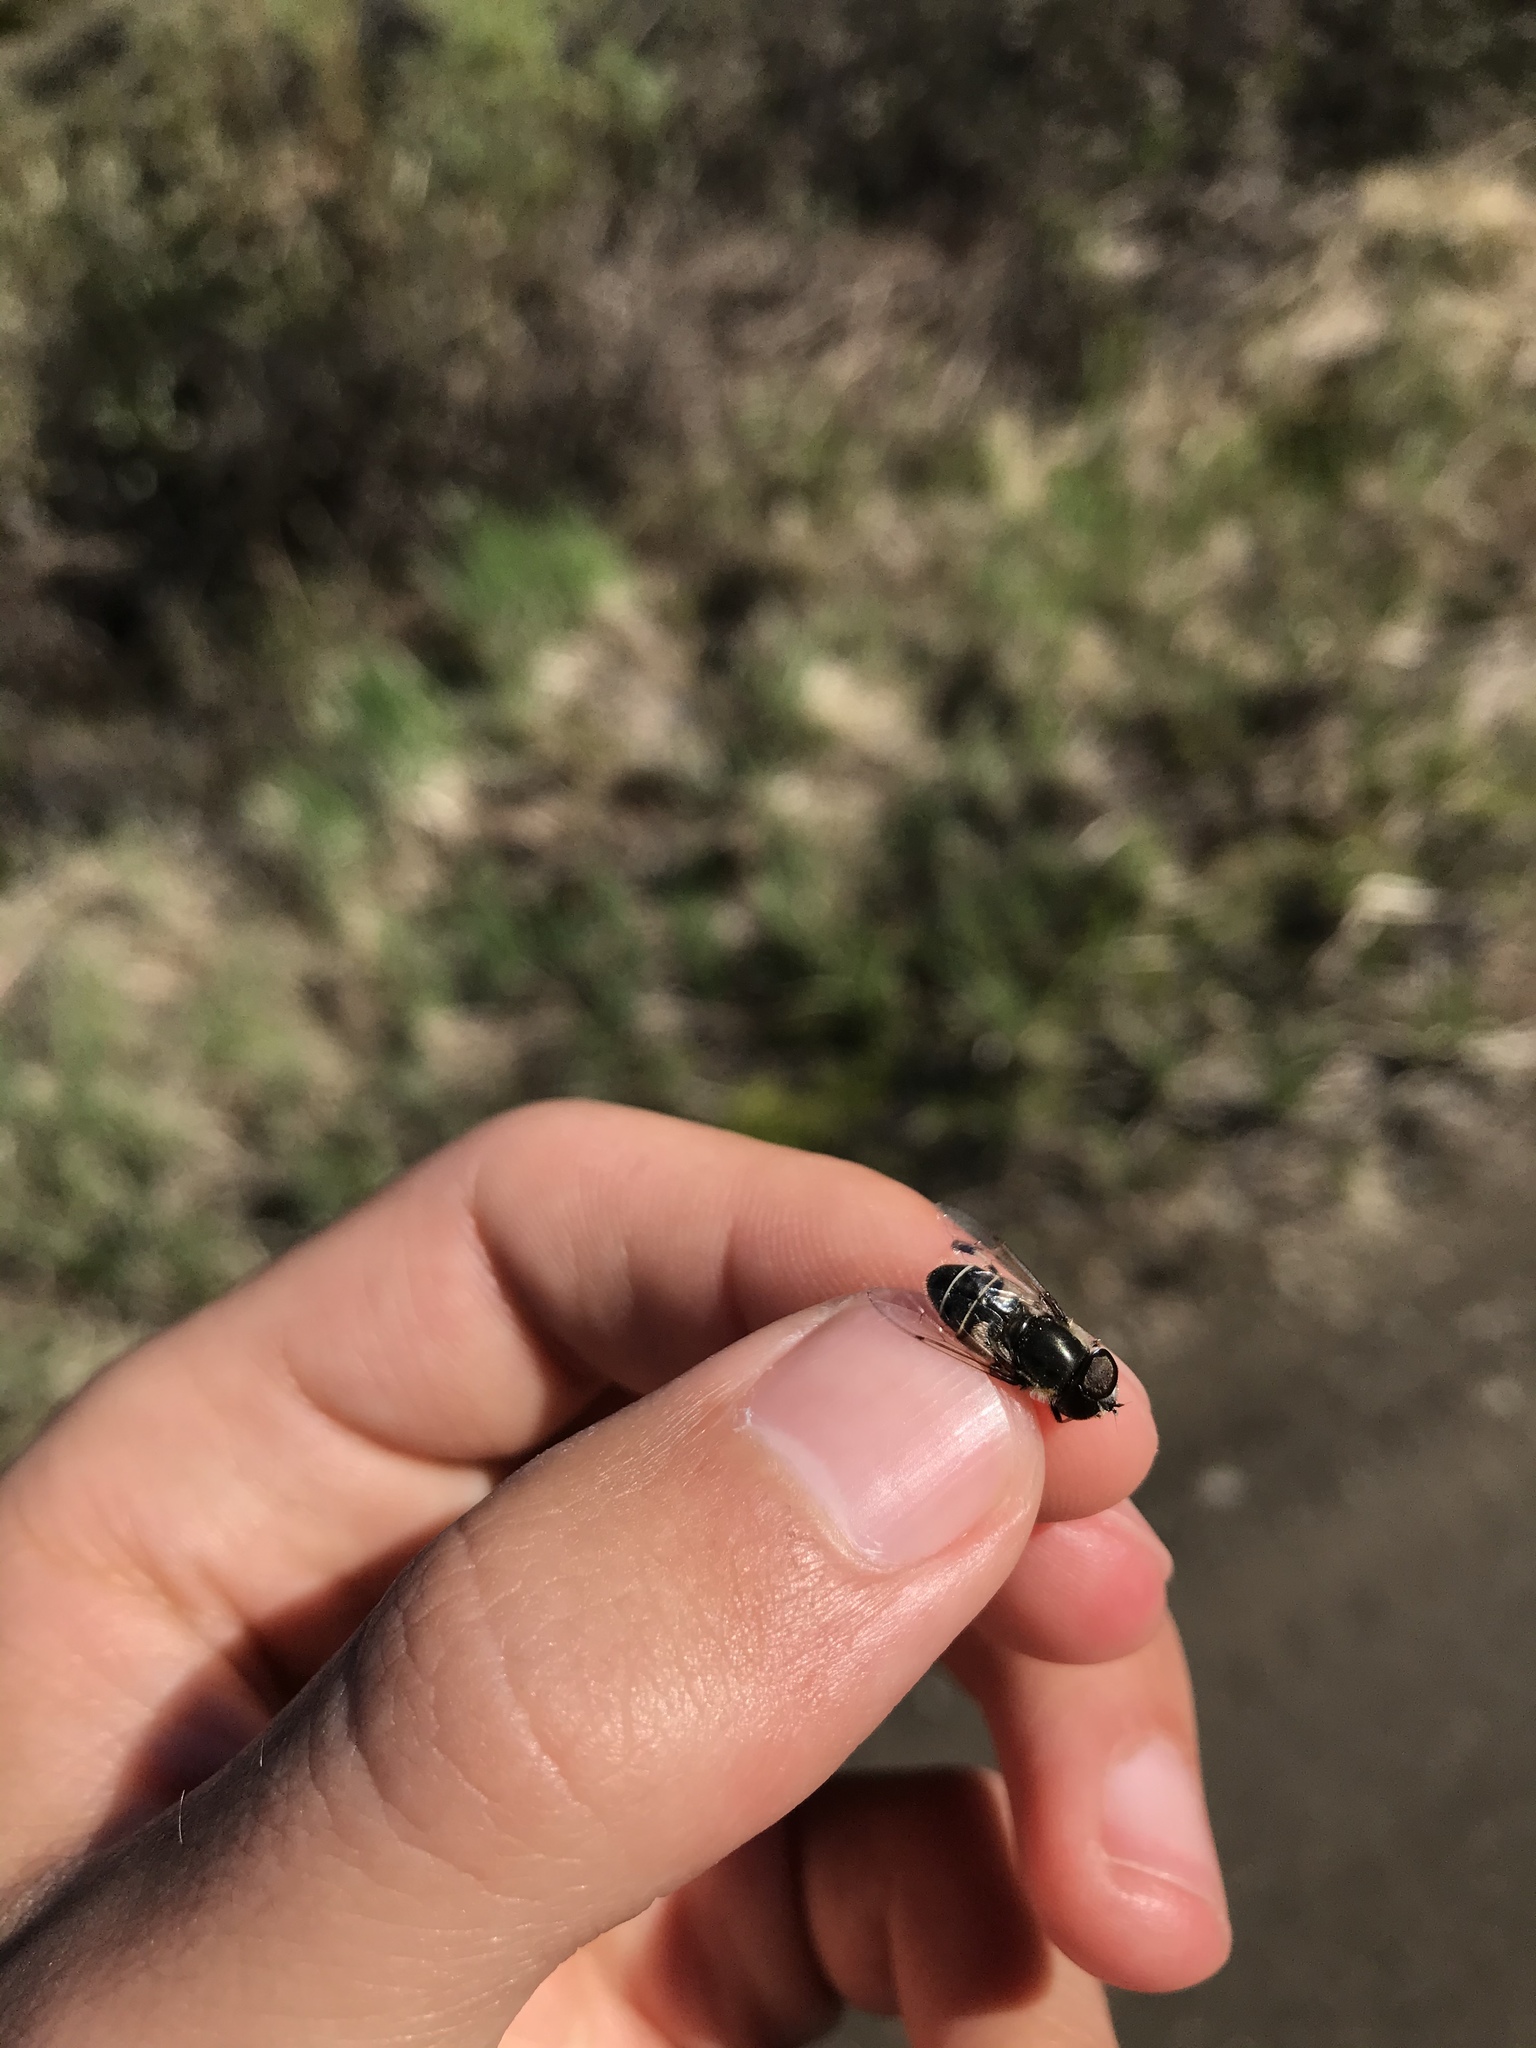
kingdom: Animalia
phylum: Arthropoda
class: Insecta
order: Diptera
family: Syrphidae
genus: Eristalis
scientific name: Eristalis dimidiata
